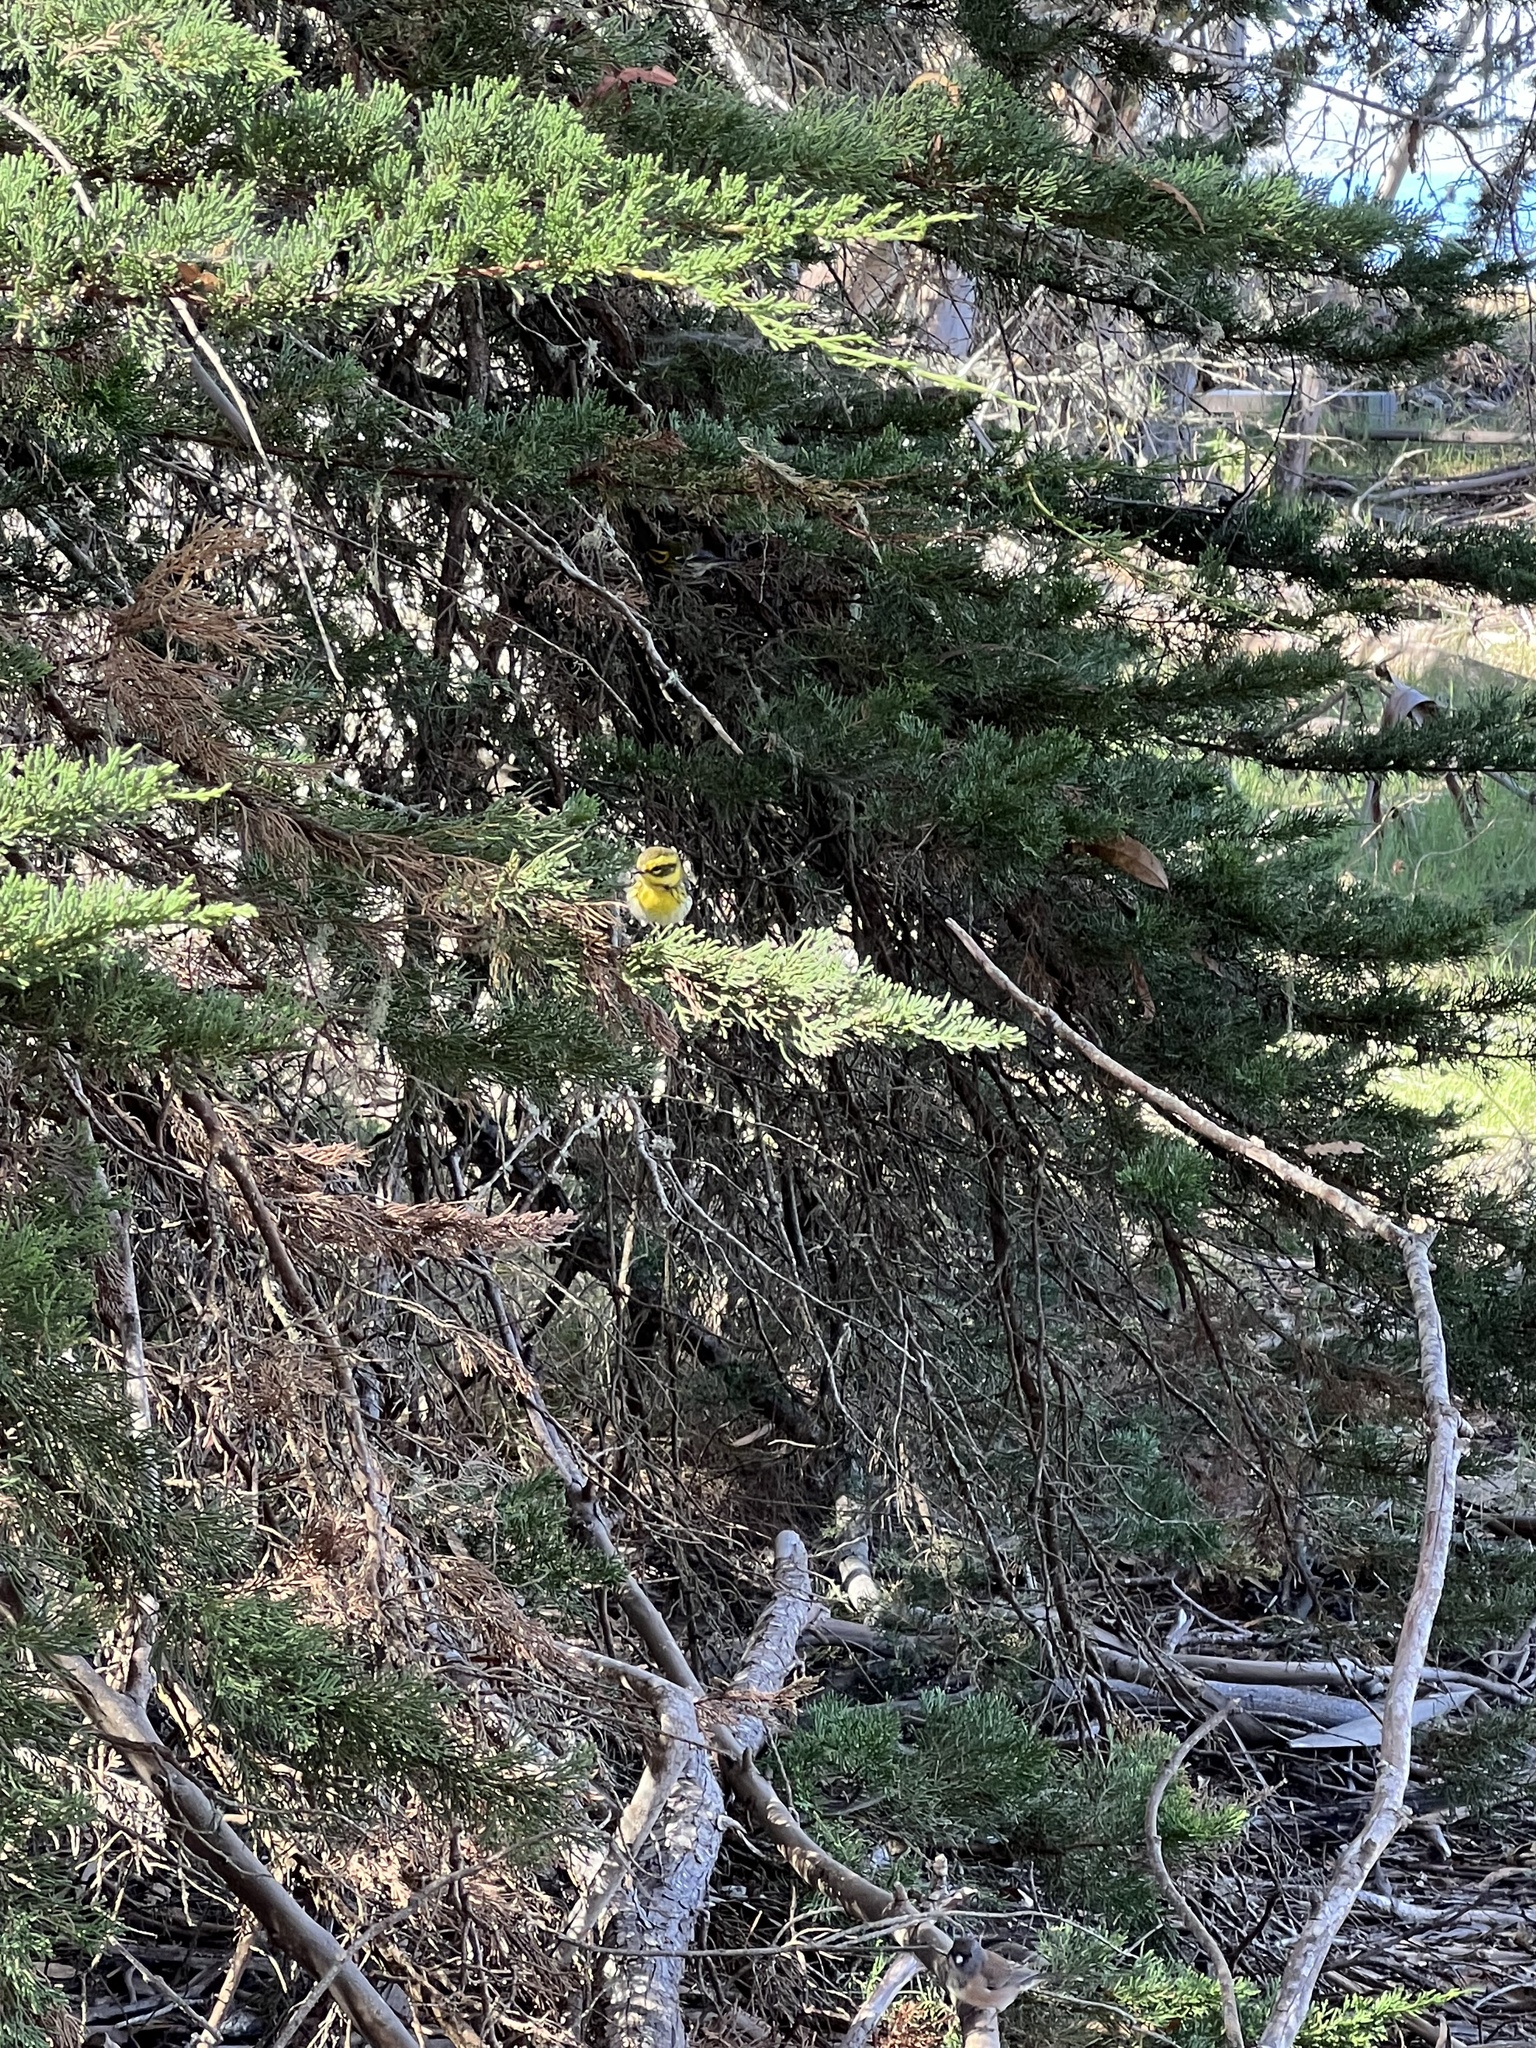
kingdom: Animalia
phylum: Chordata
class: Aves
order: Passeriformes
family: Parulidae
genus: Setophaga
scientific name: Setophaga townsendi
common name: Townsend's warbler
